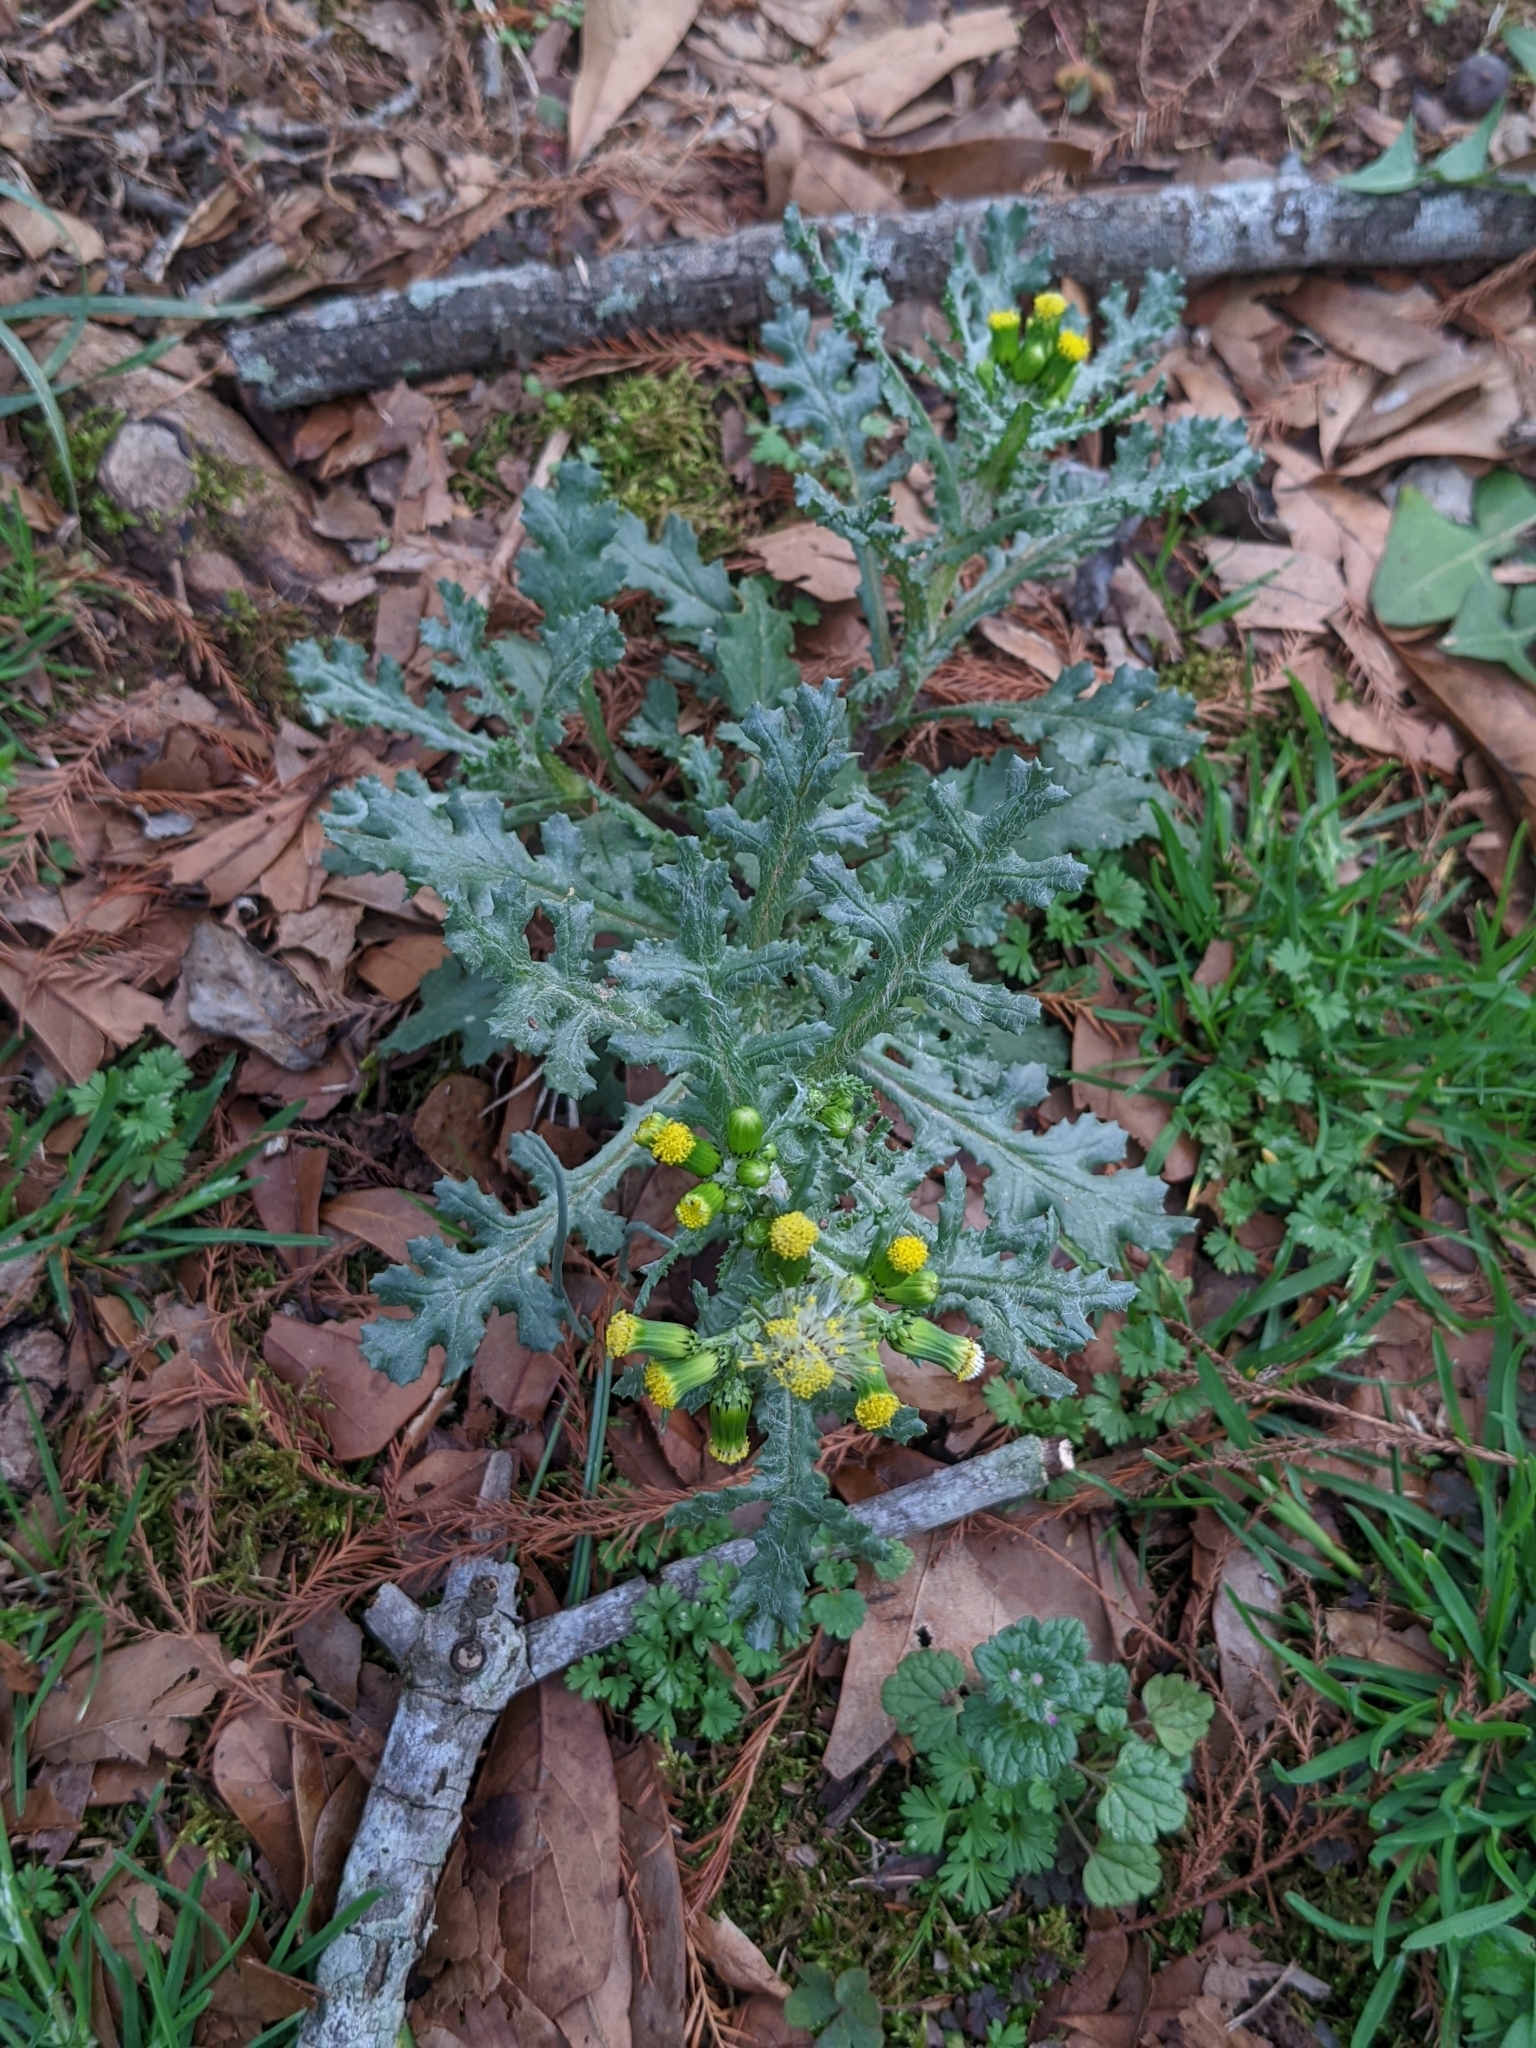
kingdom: Plantae
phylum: Tracheophyta
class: Magnoliopsida
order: Asterales
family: Asteraceae
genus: Senecio
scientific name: Senecio vulgaris
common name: Old-man-in-the-spring
